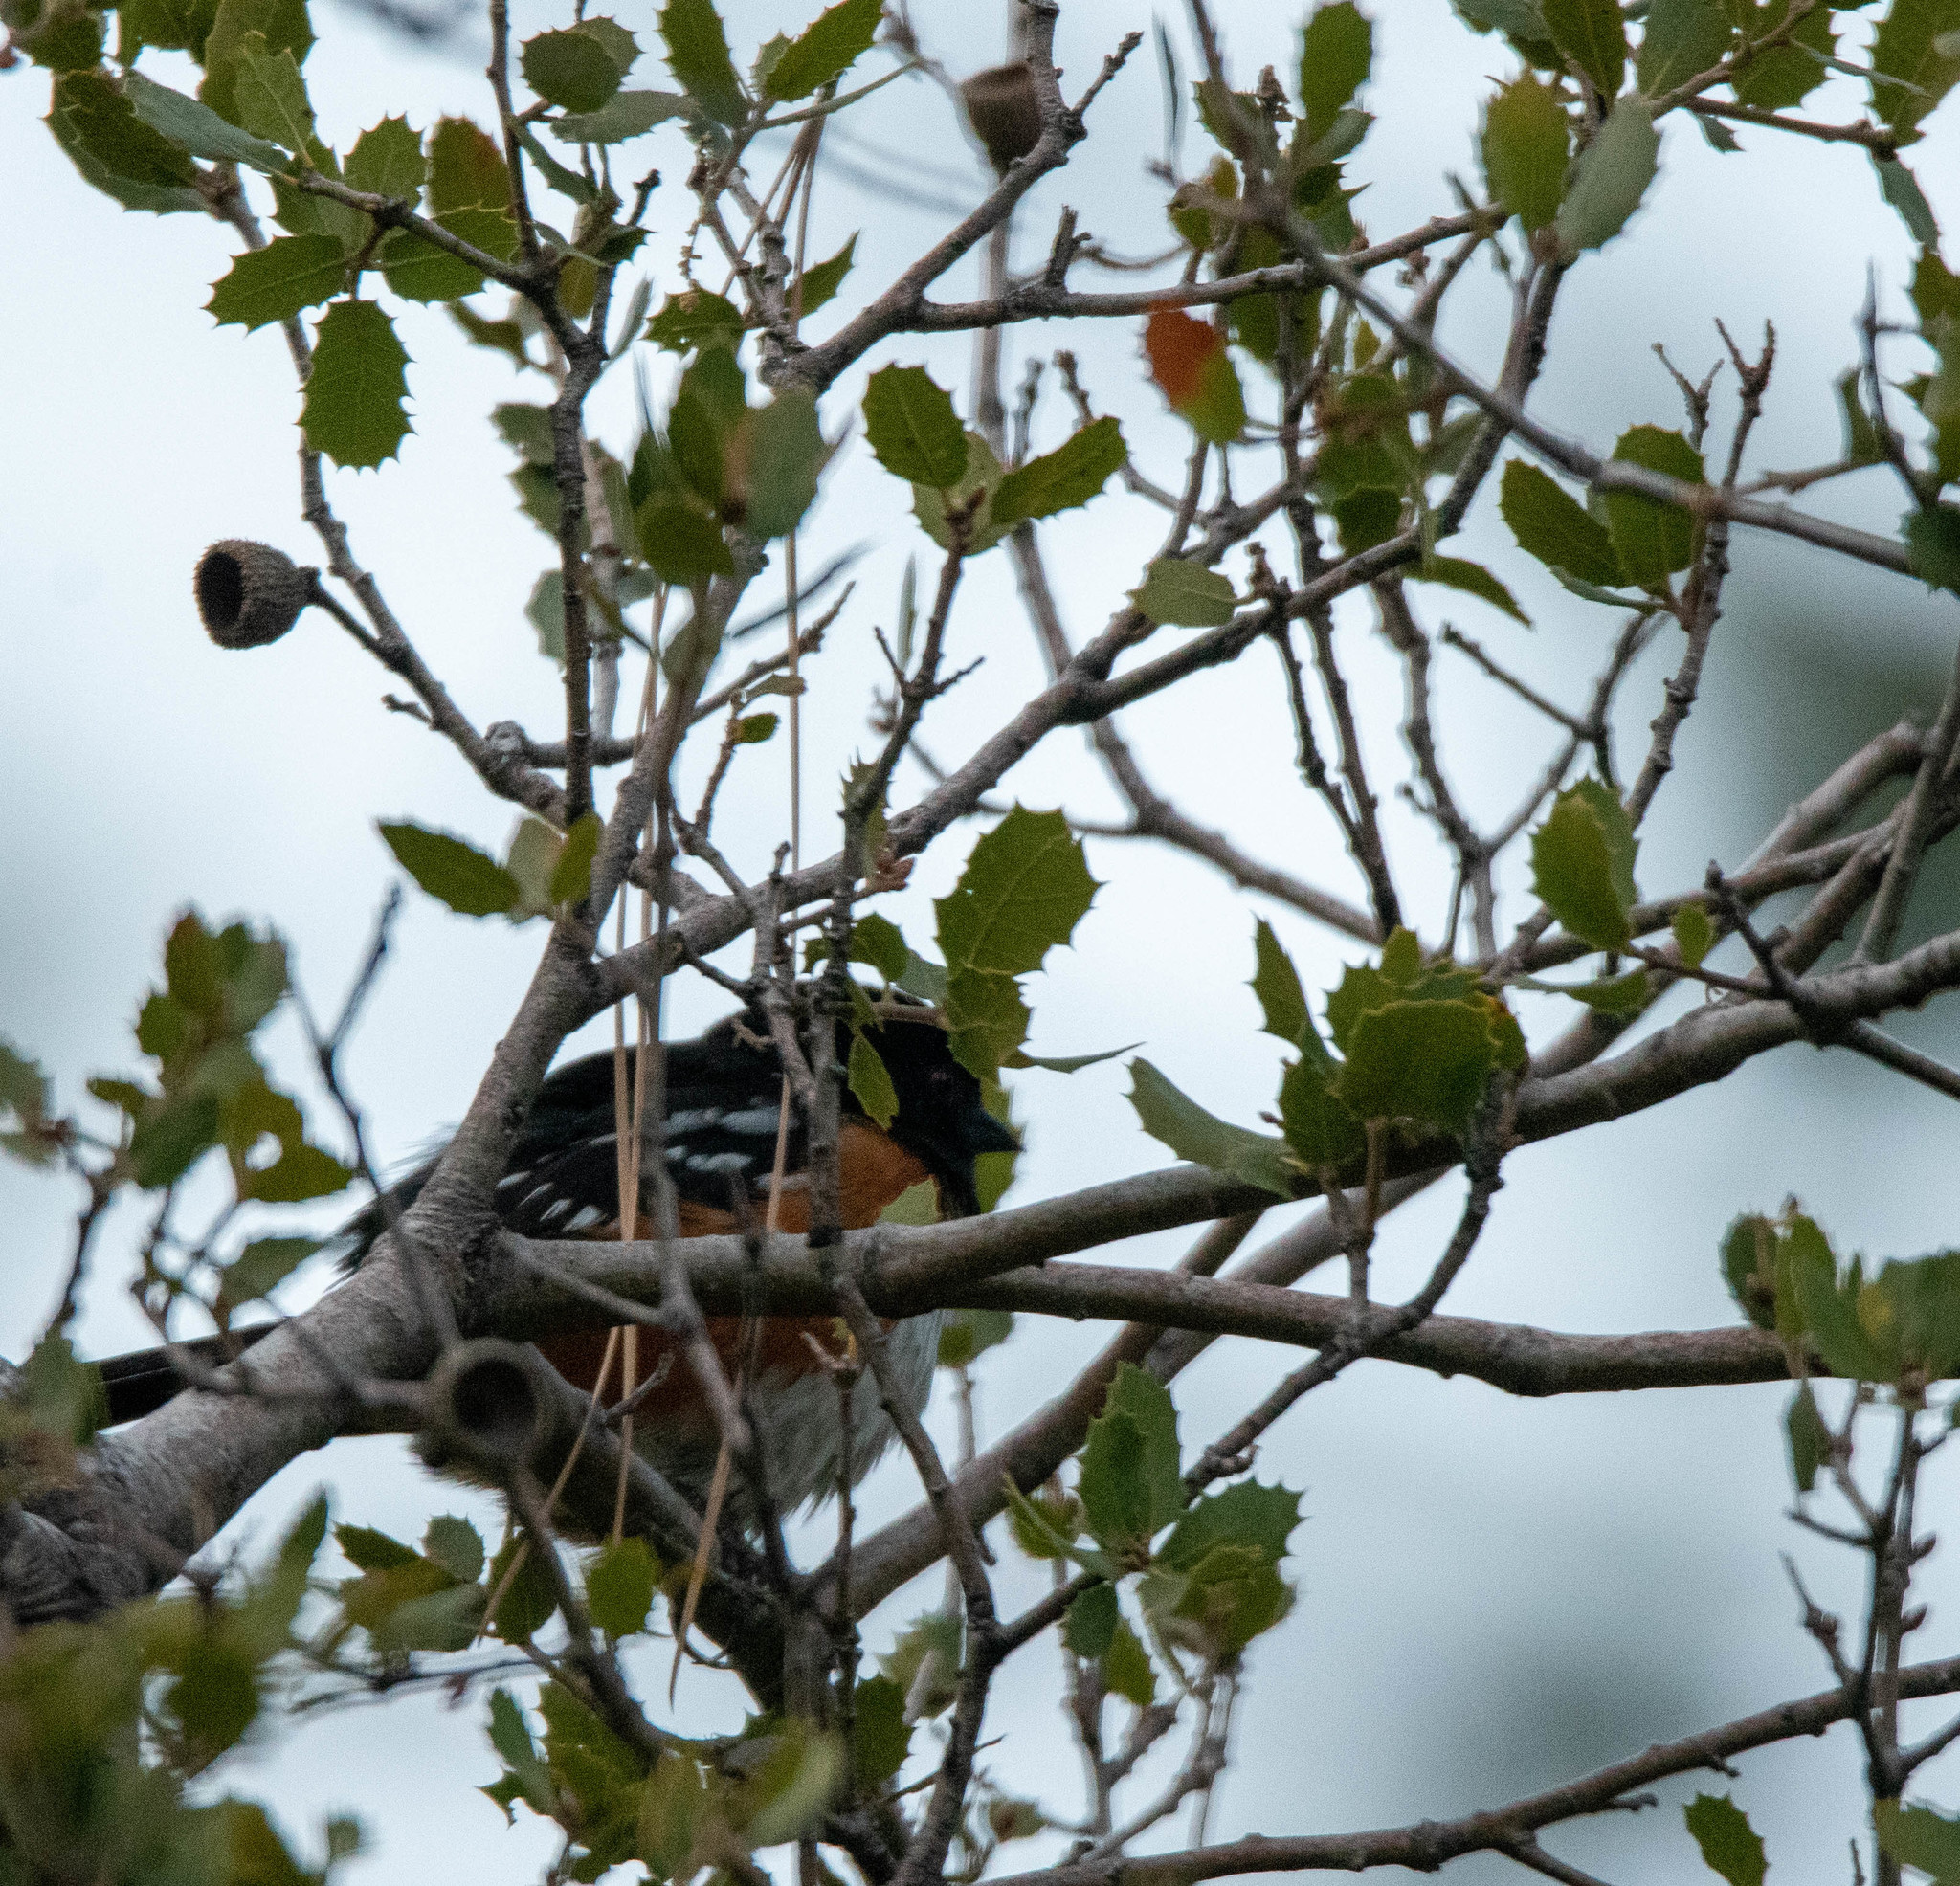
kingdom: Animalia
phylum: Chordata
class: Aves
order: Passeriformes
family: Passerellidae
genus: Pipilo
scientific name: Pipilo maculatus
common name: Spotted towhee
